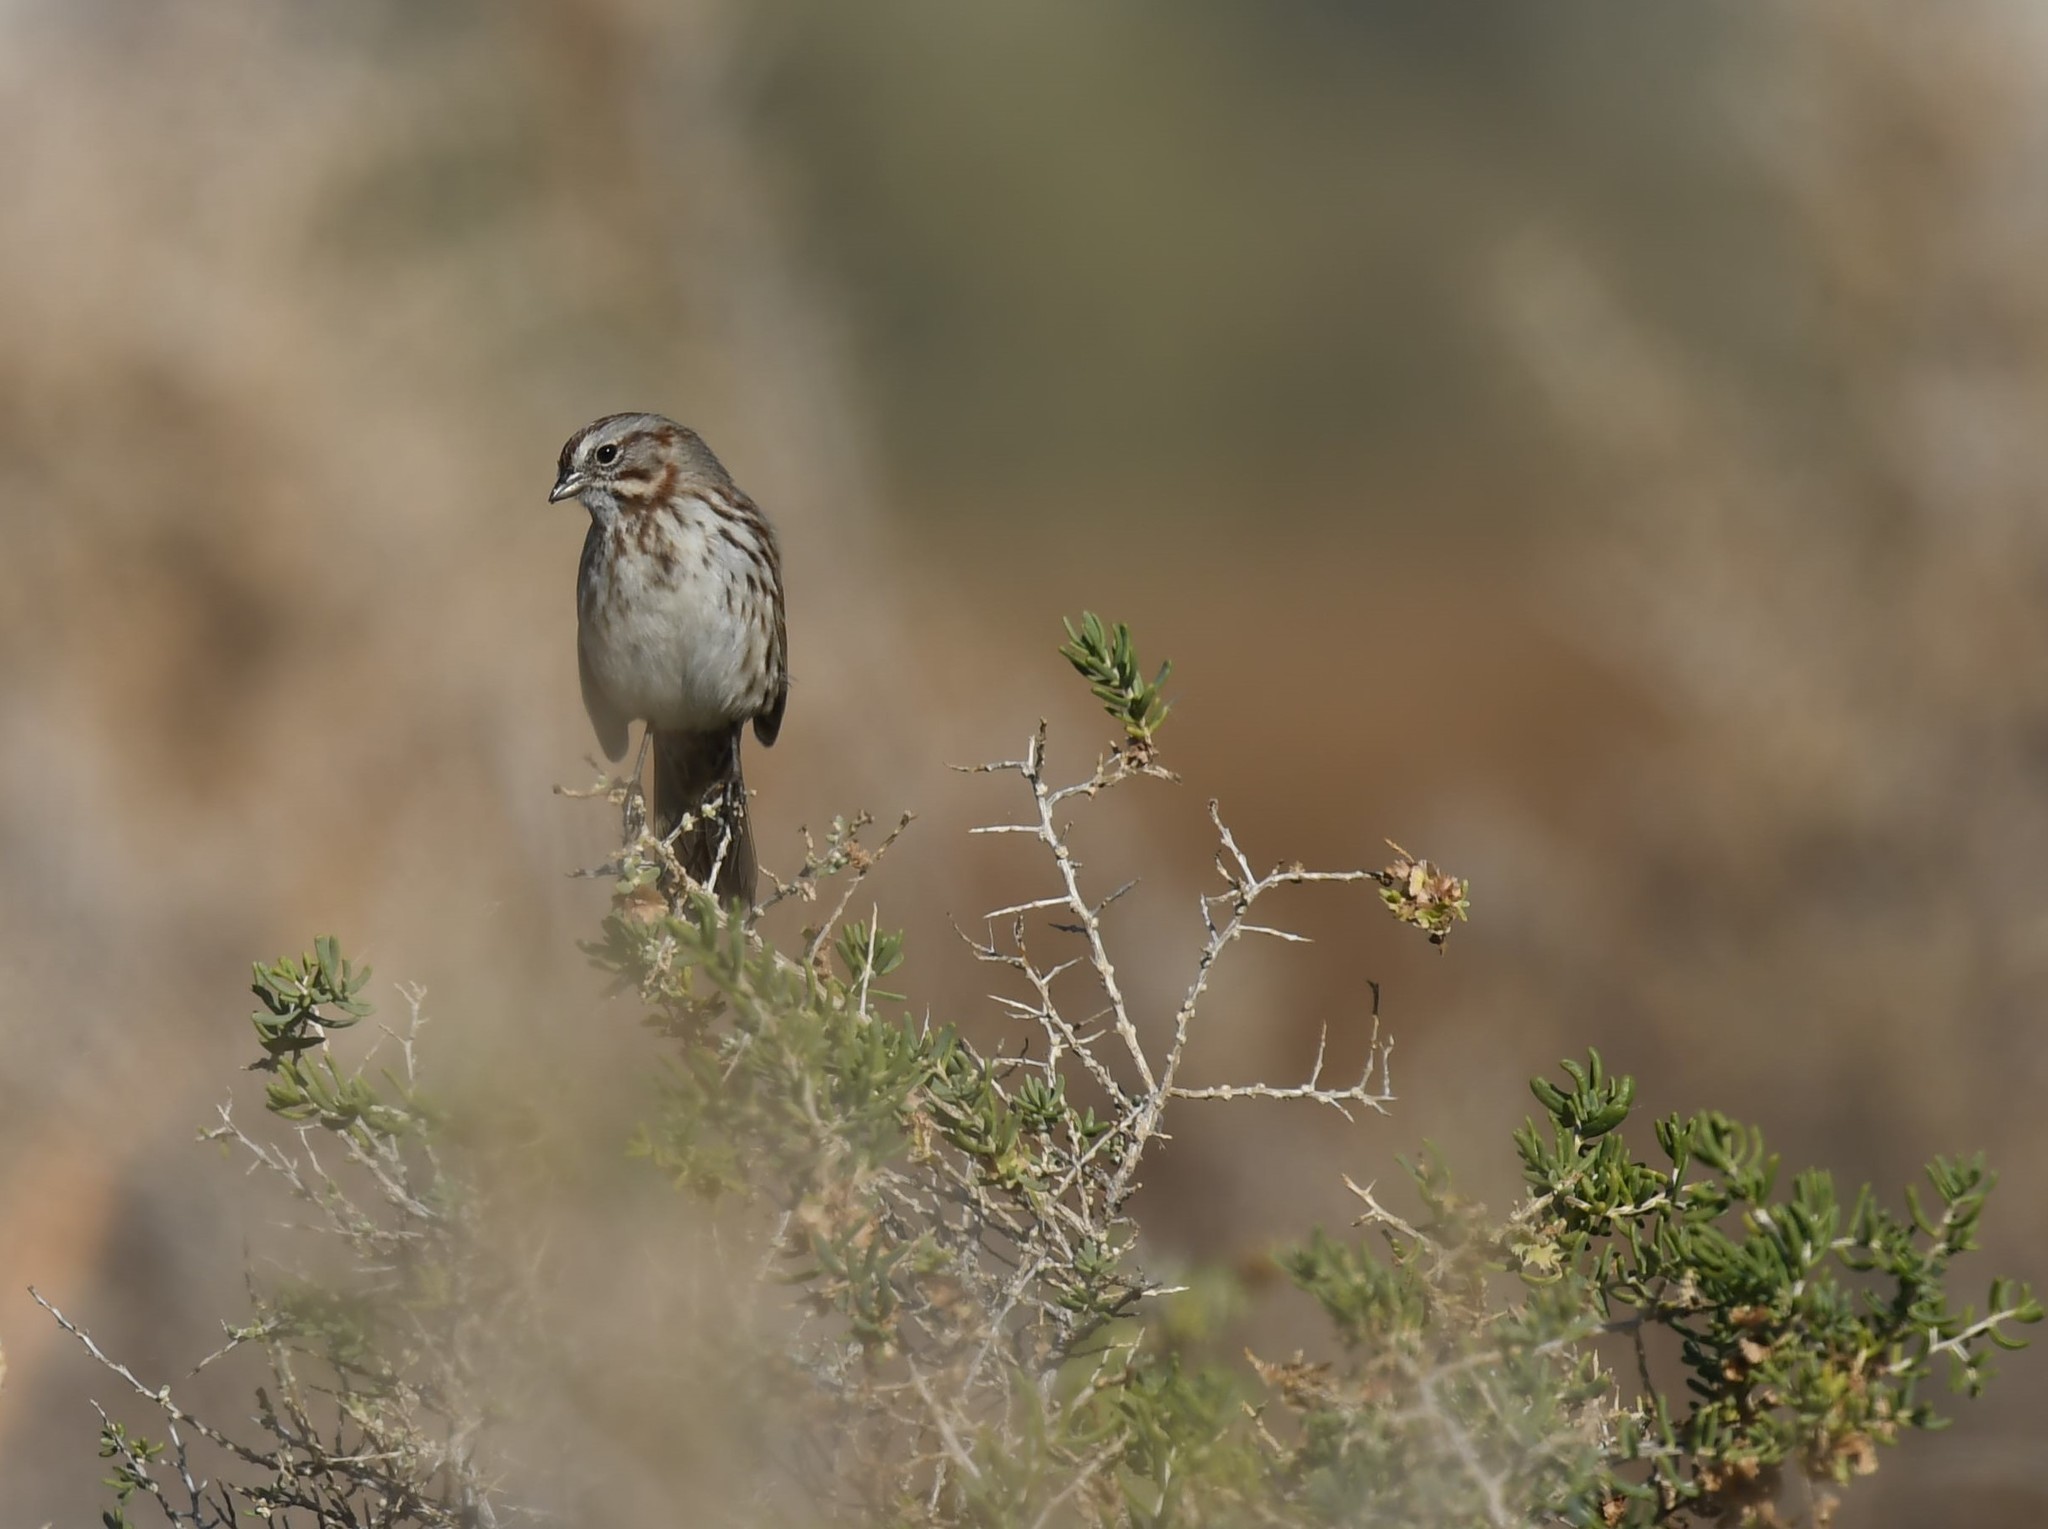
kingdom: Animalia
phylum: Chordata
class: Aves
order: Passeriformes
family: Passerellidae
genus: Melospiza
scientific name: Melospiza melodia
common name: Song sparrow
